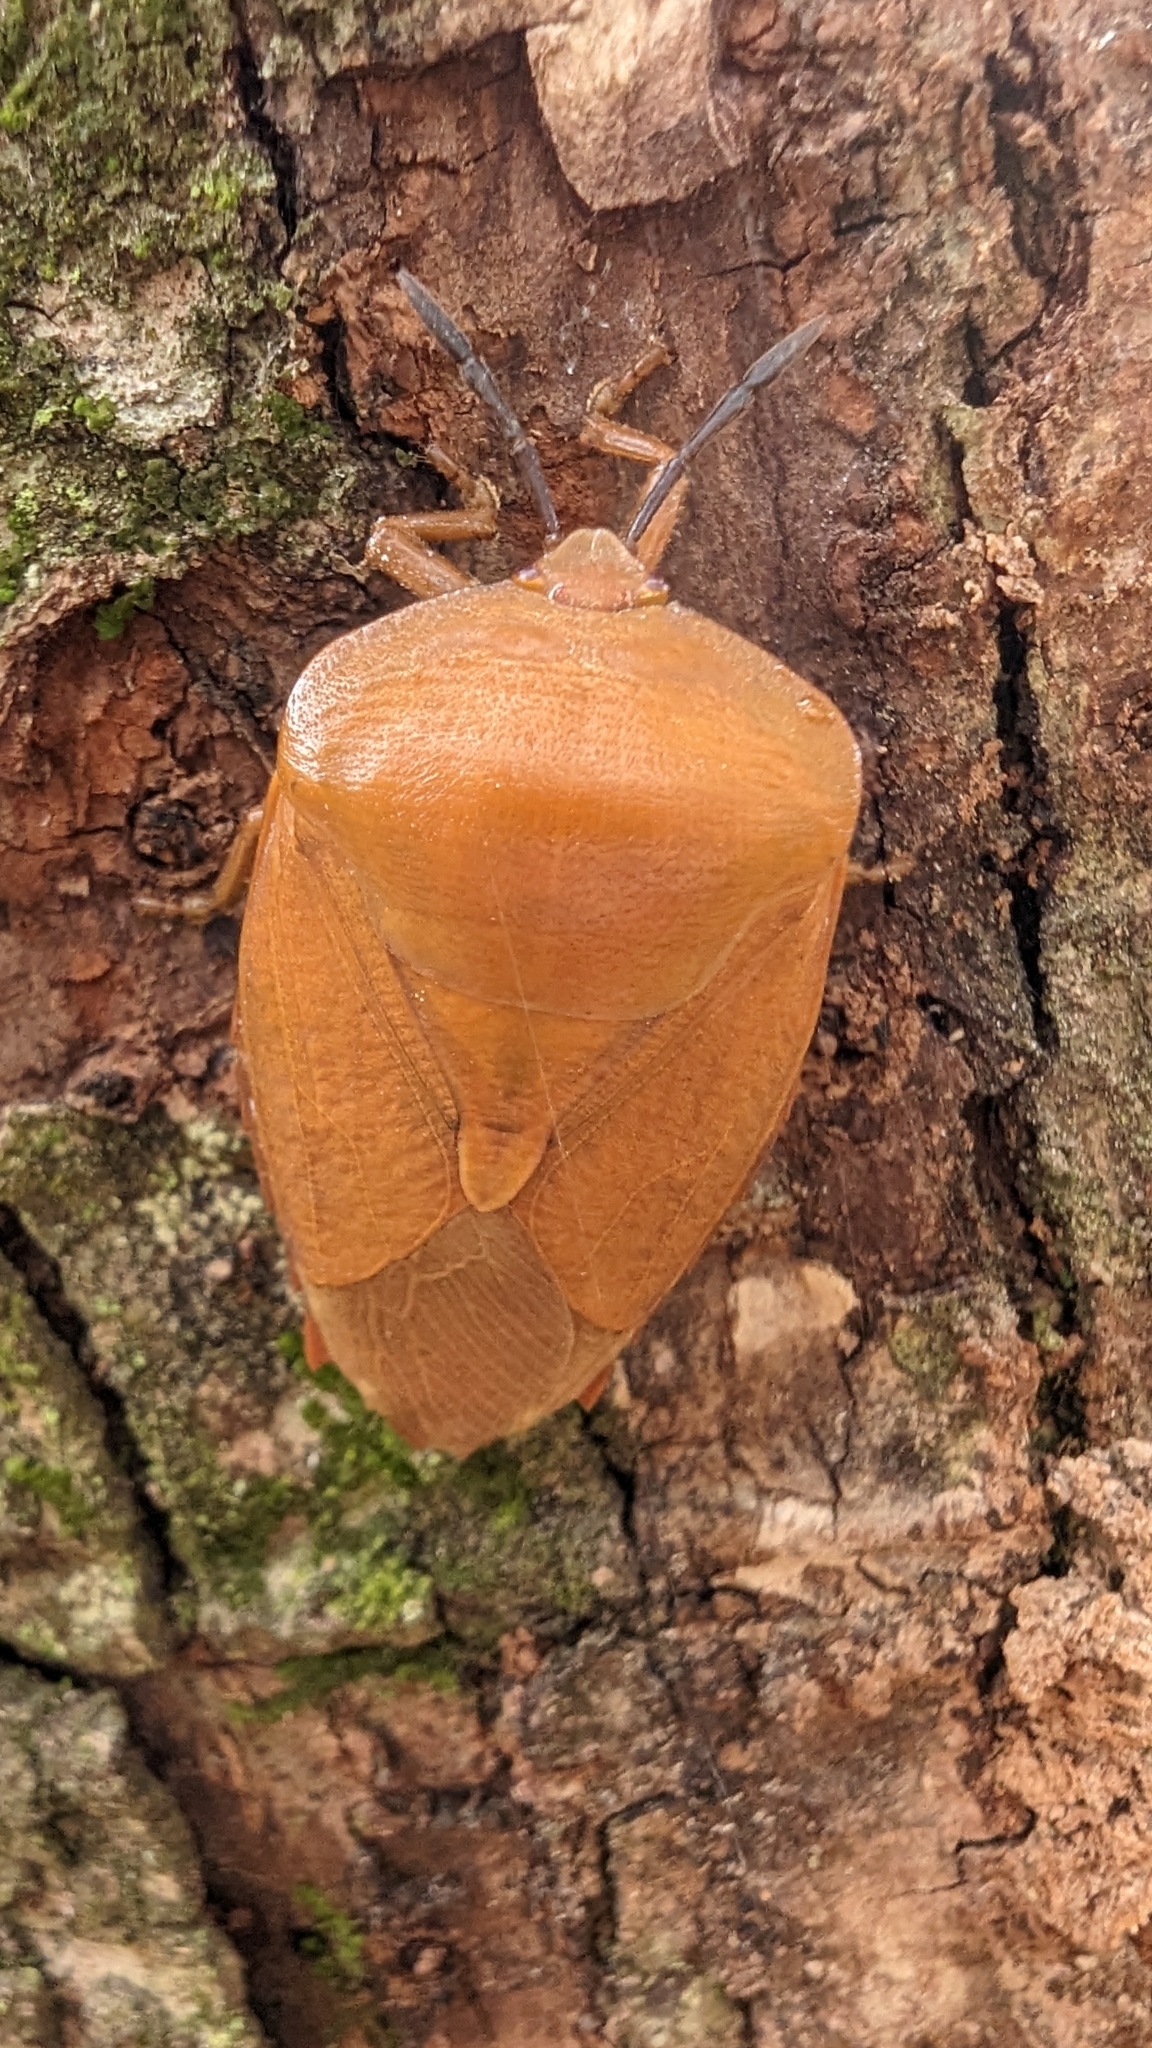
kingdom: Animalia
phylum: Arthropoda
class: Insecta
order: Hemiptera
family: Tessaratomidae
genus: Tessaratoma
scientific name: Tessaratoma papillosa
